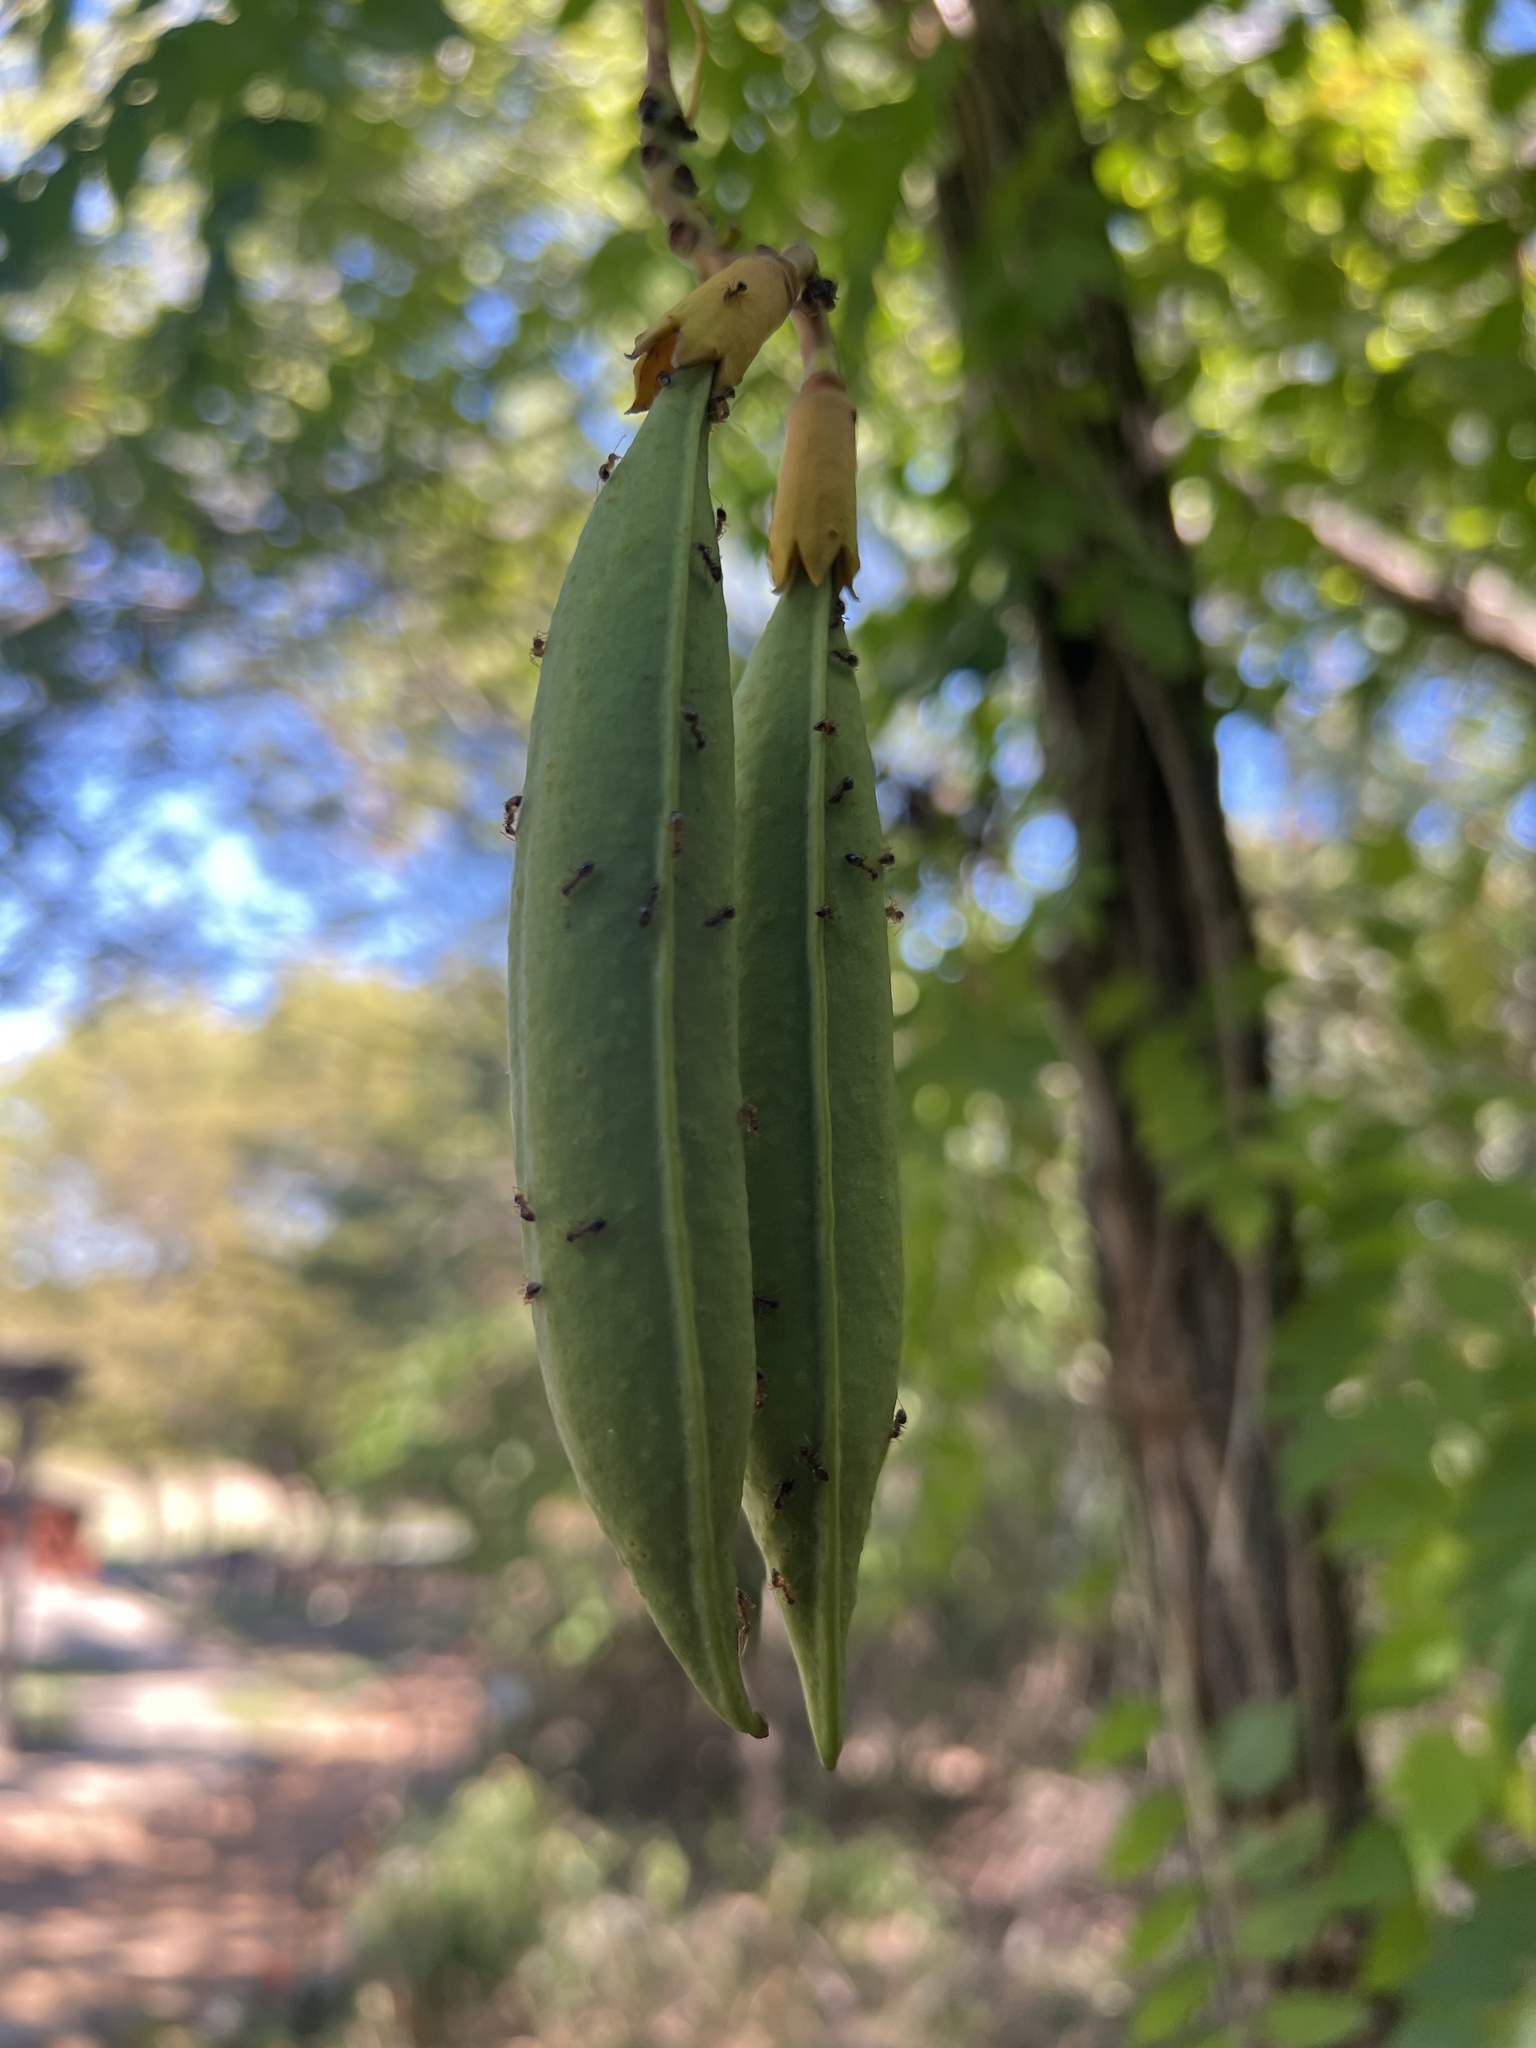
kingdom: Plantae
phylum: Tracheophyta
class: Magnoliopsida
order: Lamiales
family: Bignoniaceae
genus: Campsis
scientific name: Campsis radicans
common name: Trumpet-creeper
